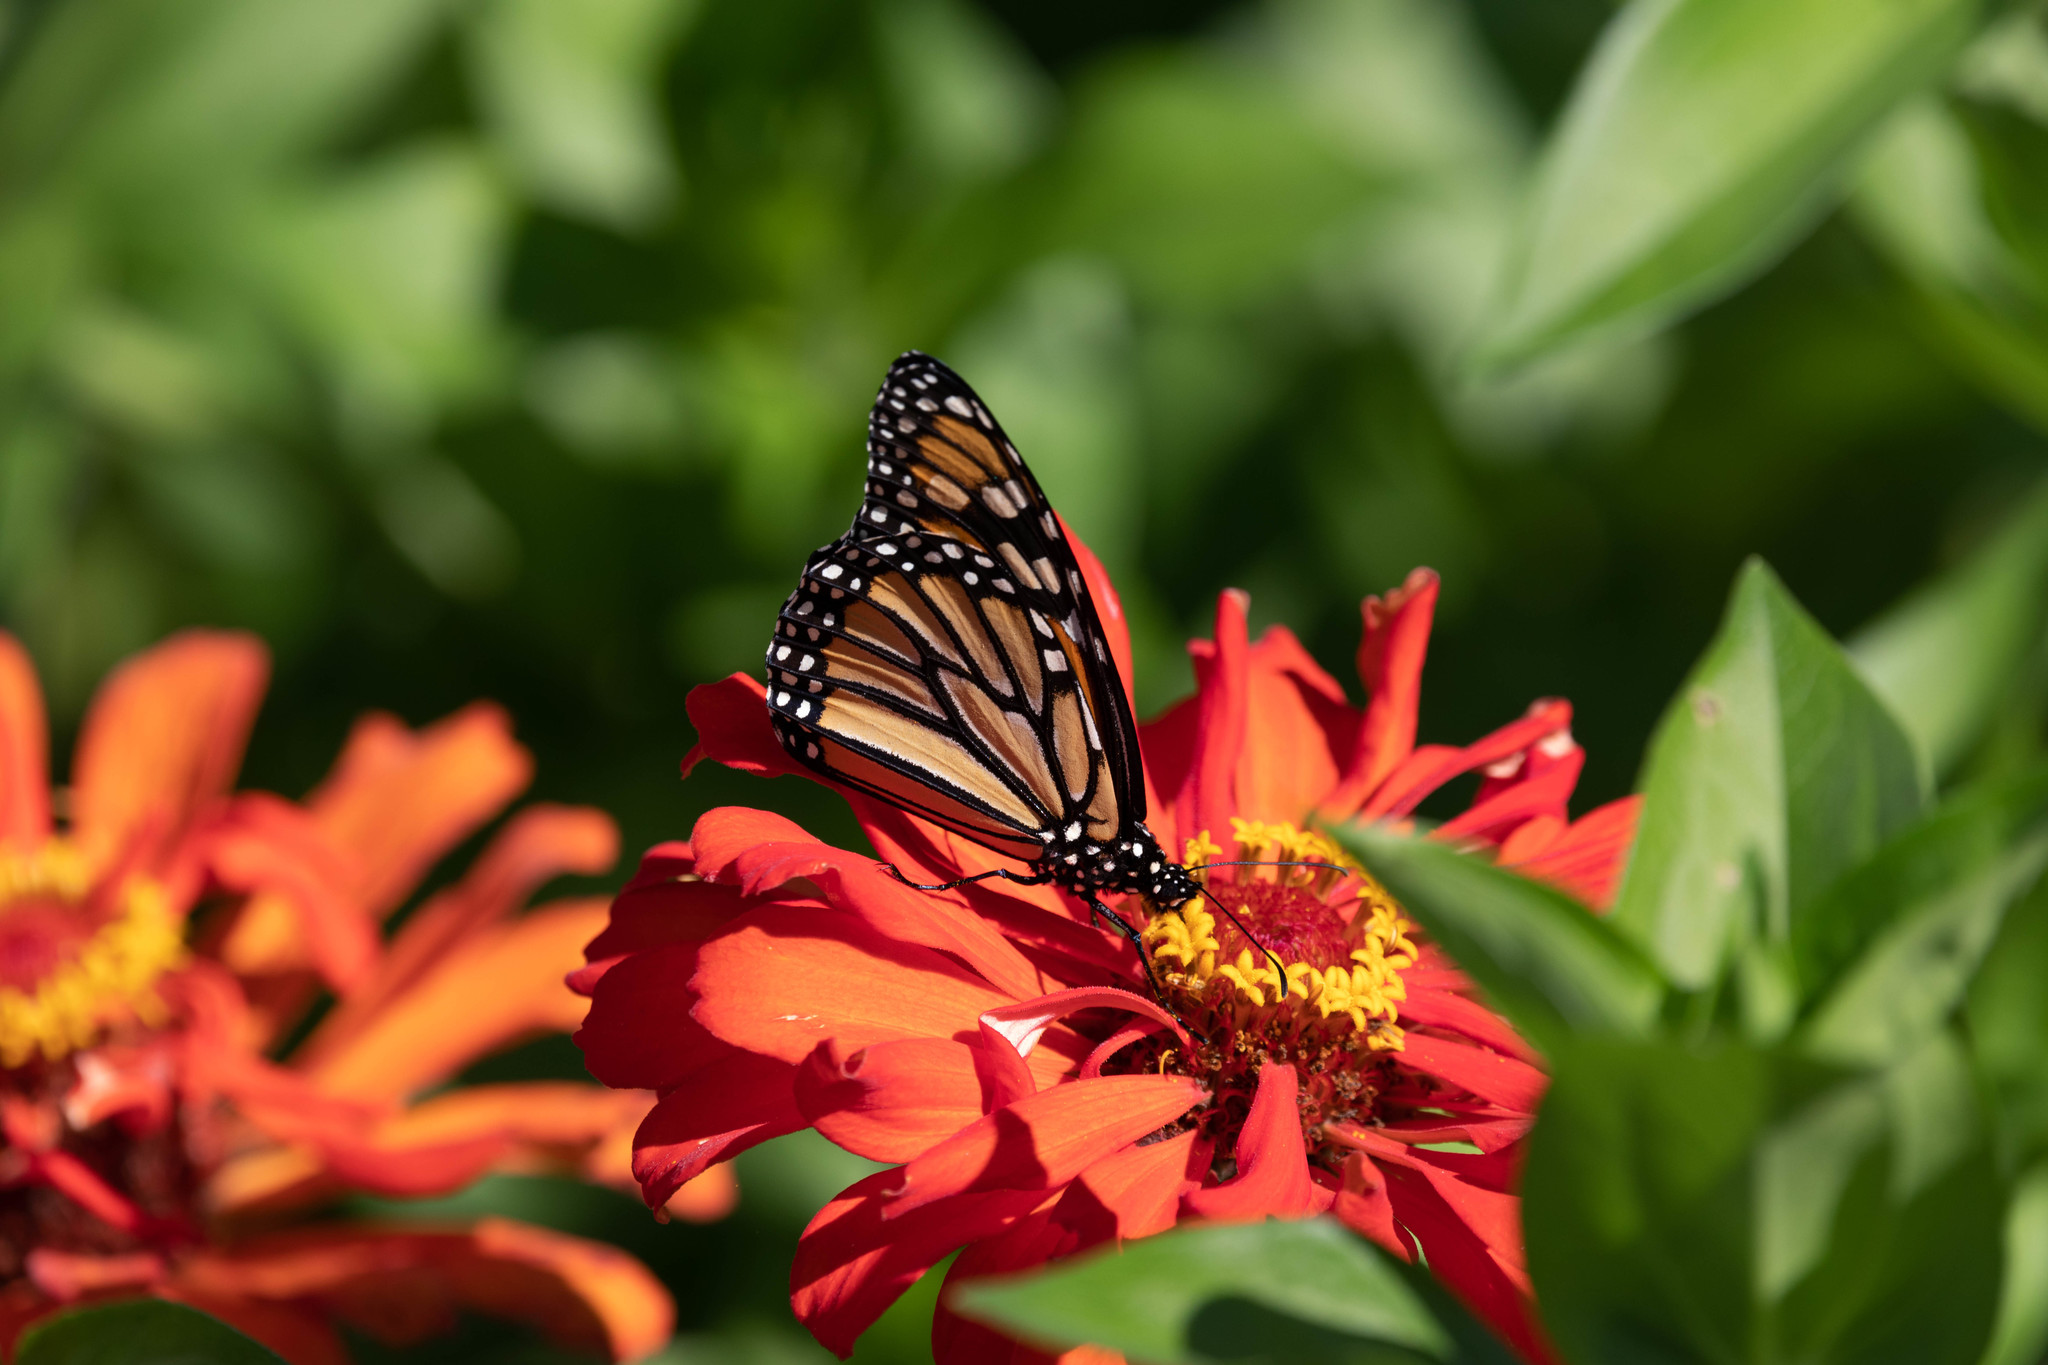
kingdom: Animalia
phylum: Arthropoda
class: Insecta
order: Lepidoptera
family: Nymphalidae
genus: Danaus
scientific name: Danaus plexippus
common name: Monarch
